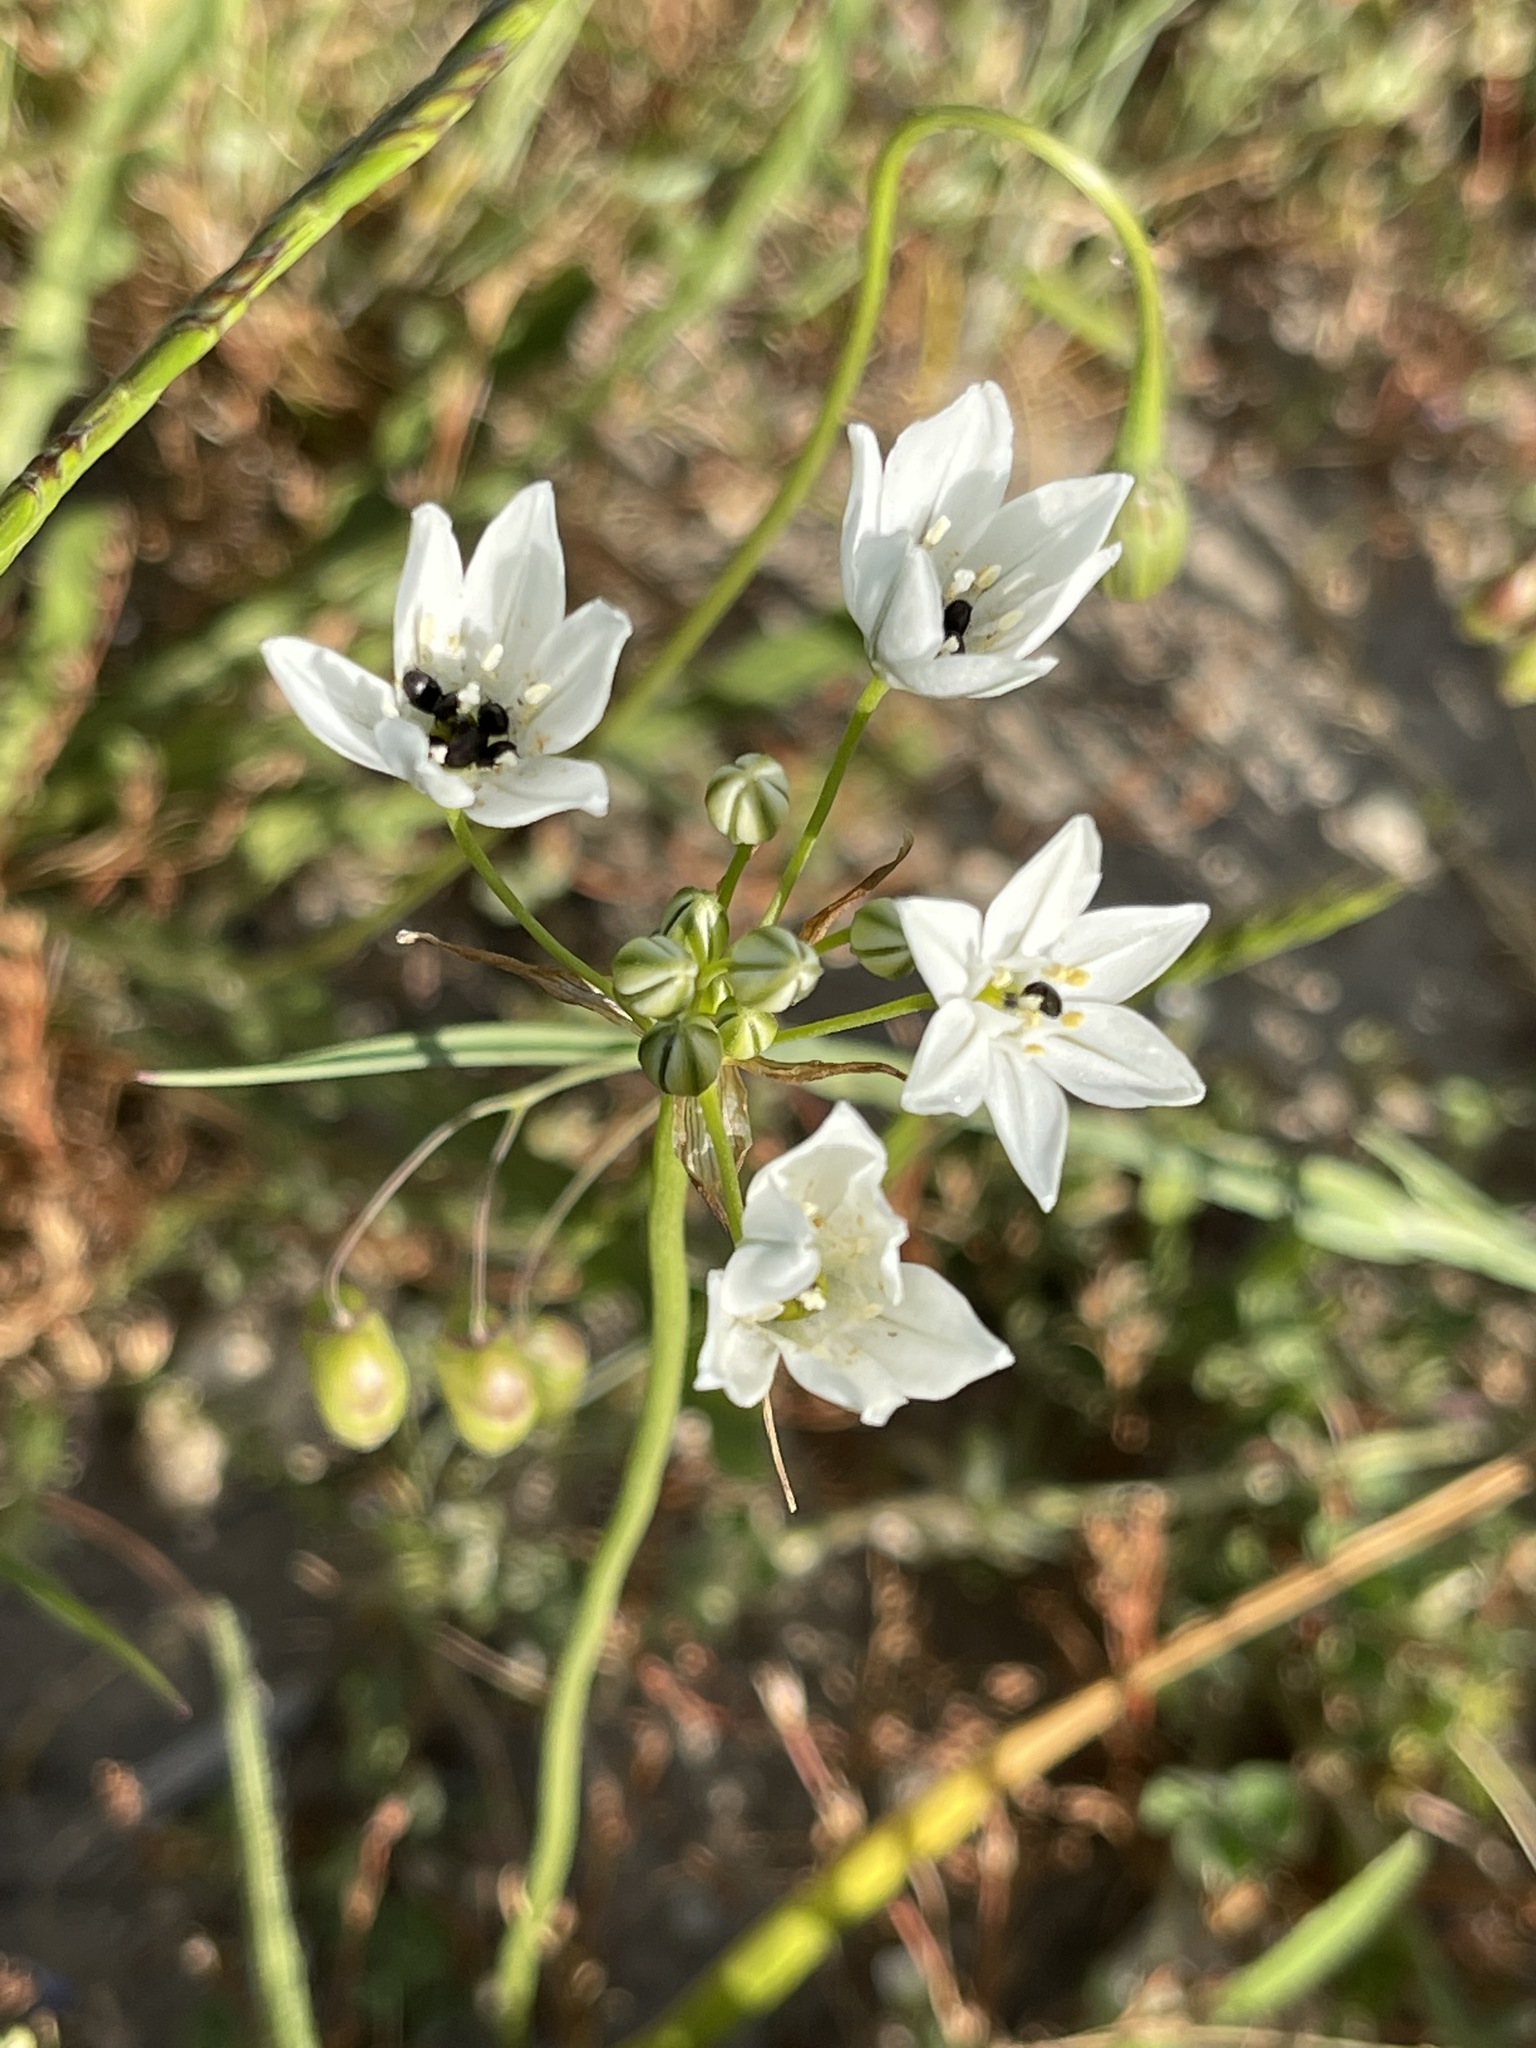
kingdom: Plantae
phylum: Tracheophyta
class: Liliopsida
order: Asparagales
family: Asparagaceae
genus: Triteleia
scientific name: Triteleia hyacinthina
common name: White brodiaea
